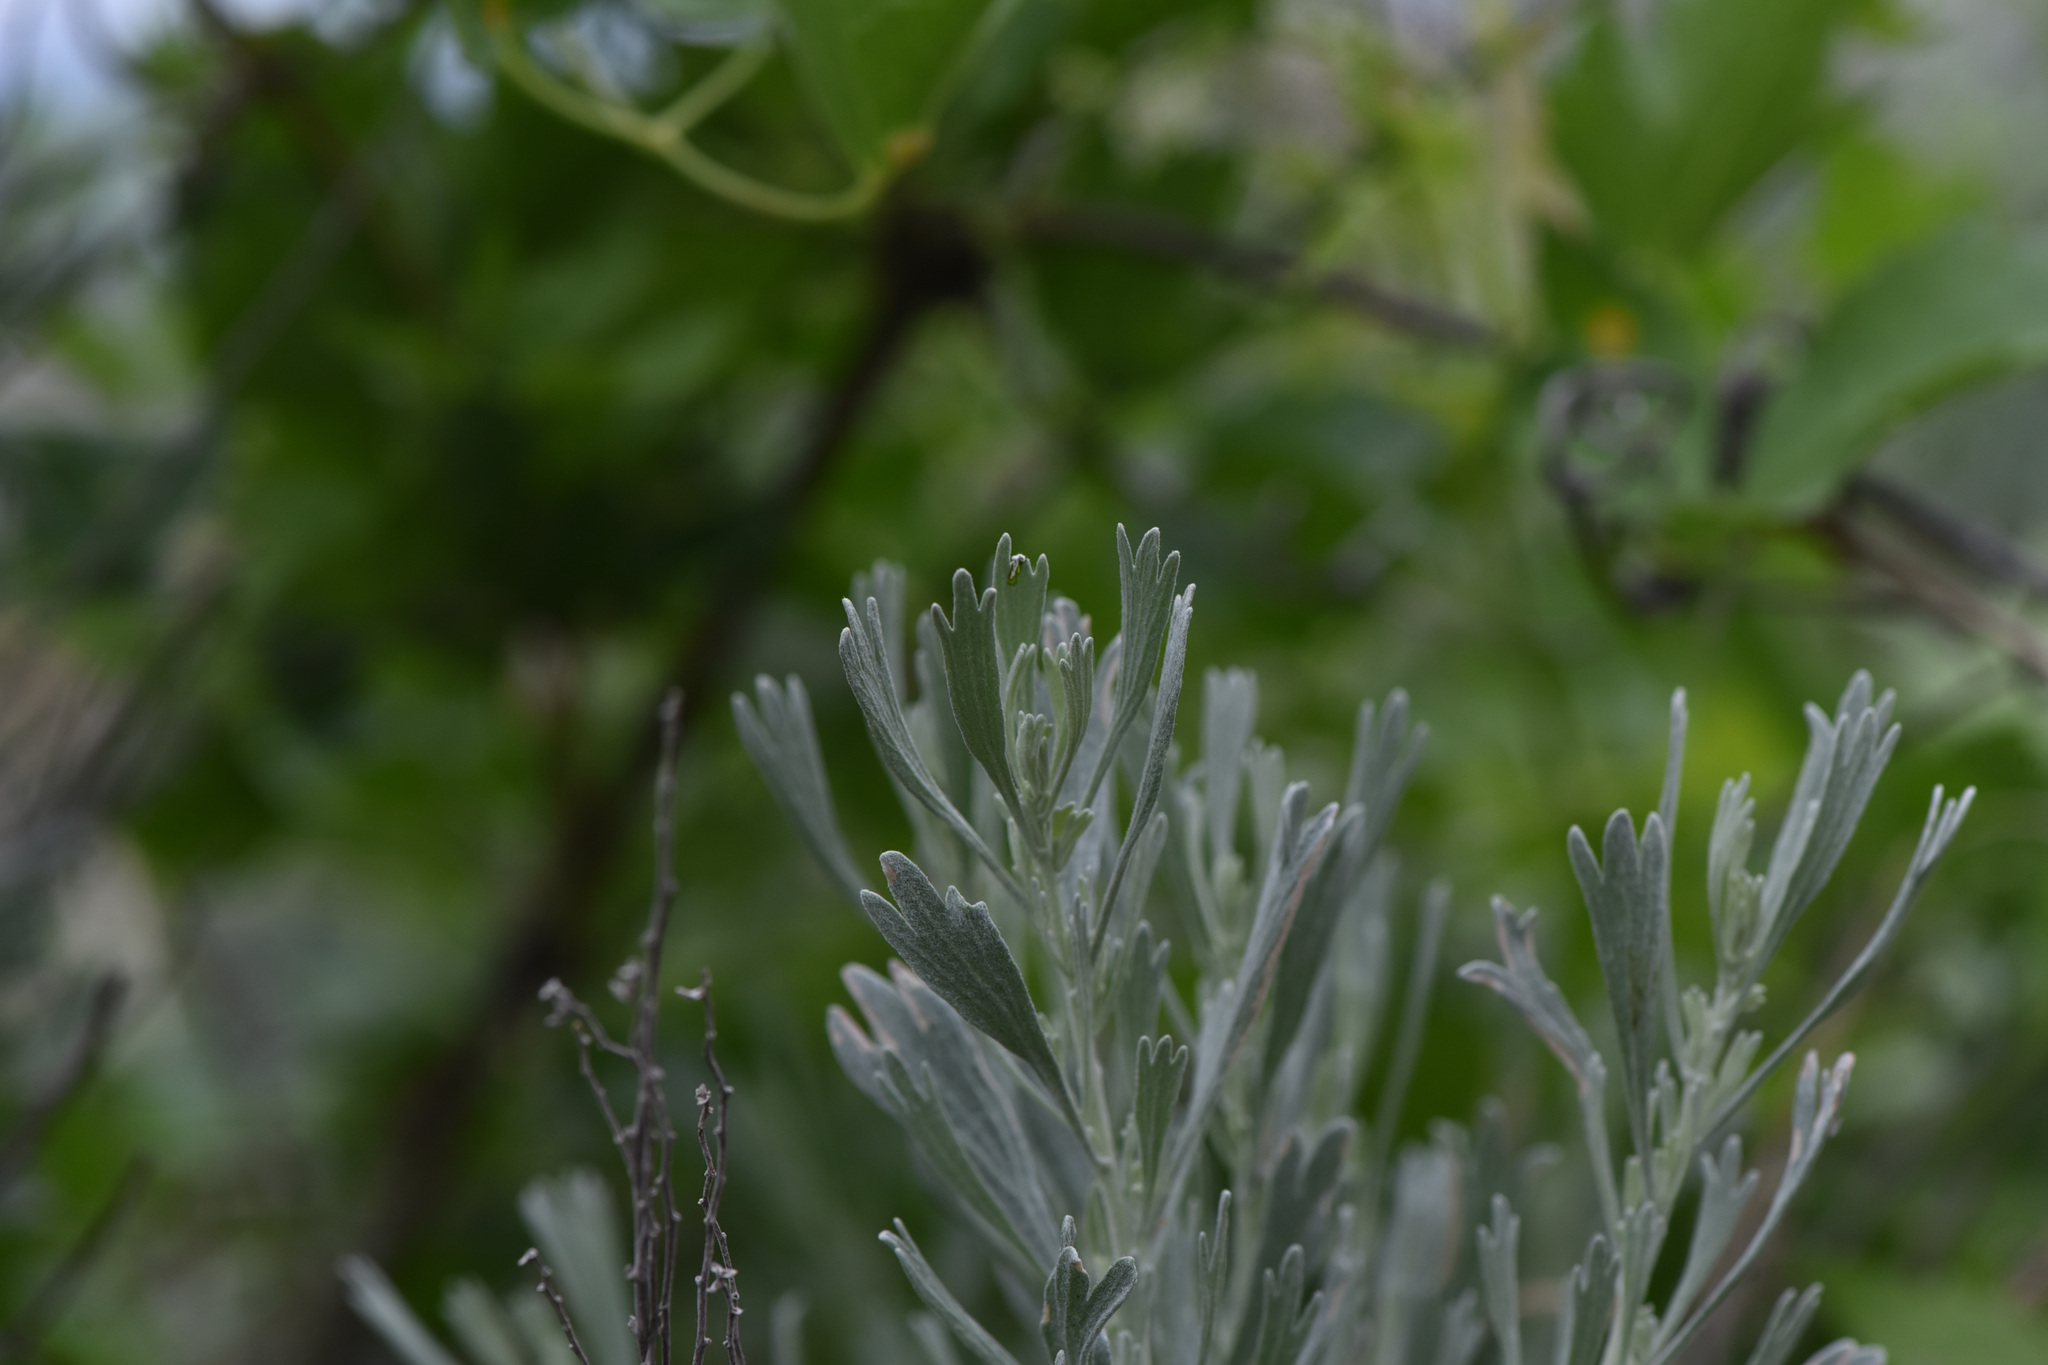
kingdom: Plantae
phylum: Tracheophyta
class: Magnoliopsida
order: Asterales
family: Asteraceae
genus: Artemisia
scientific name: Artemisia tridentata
